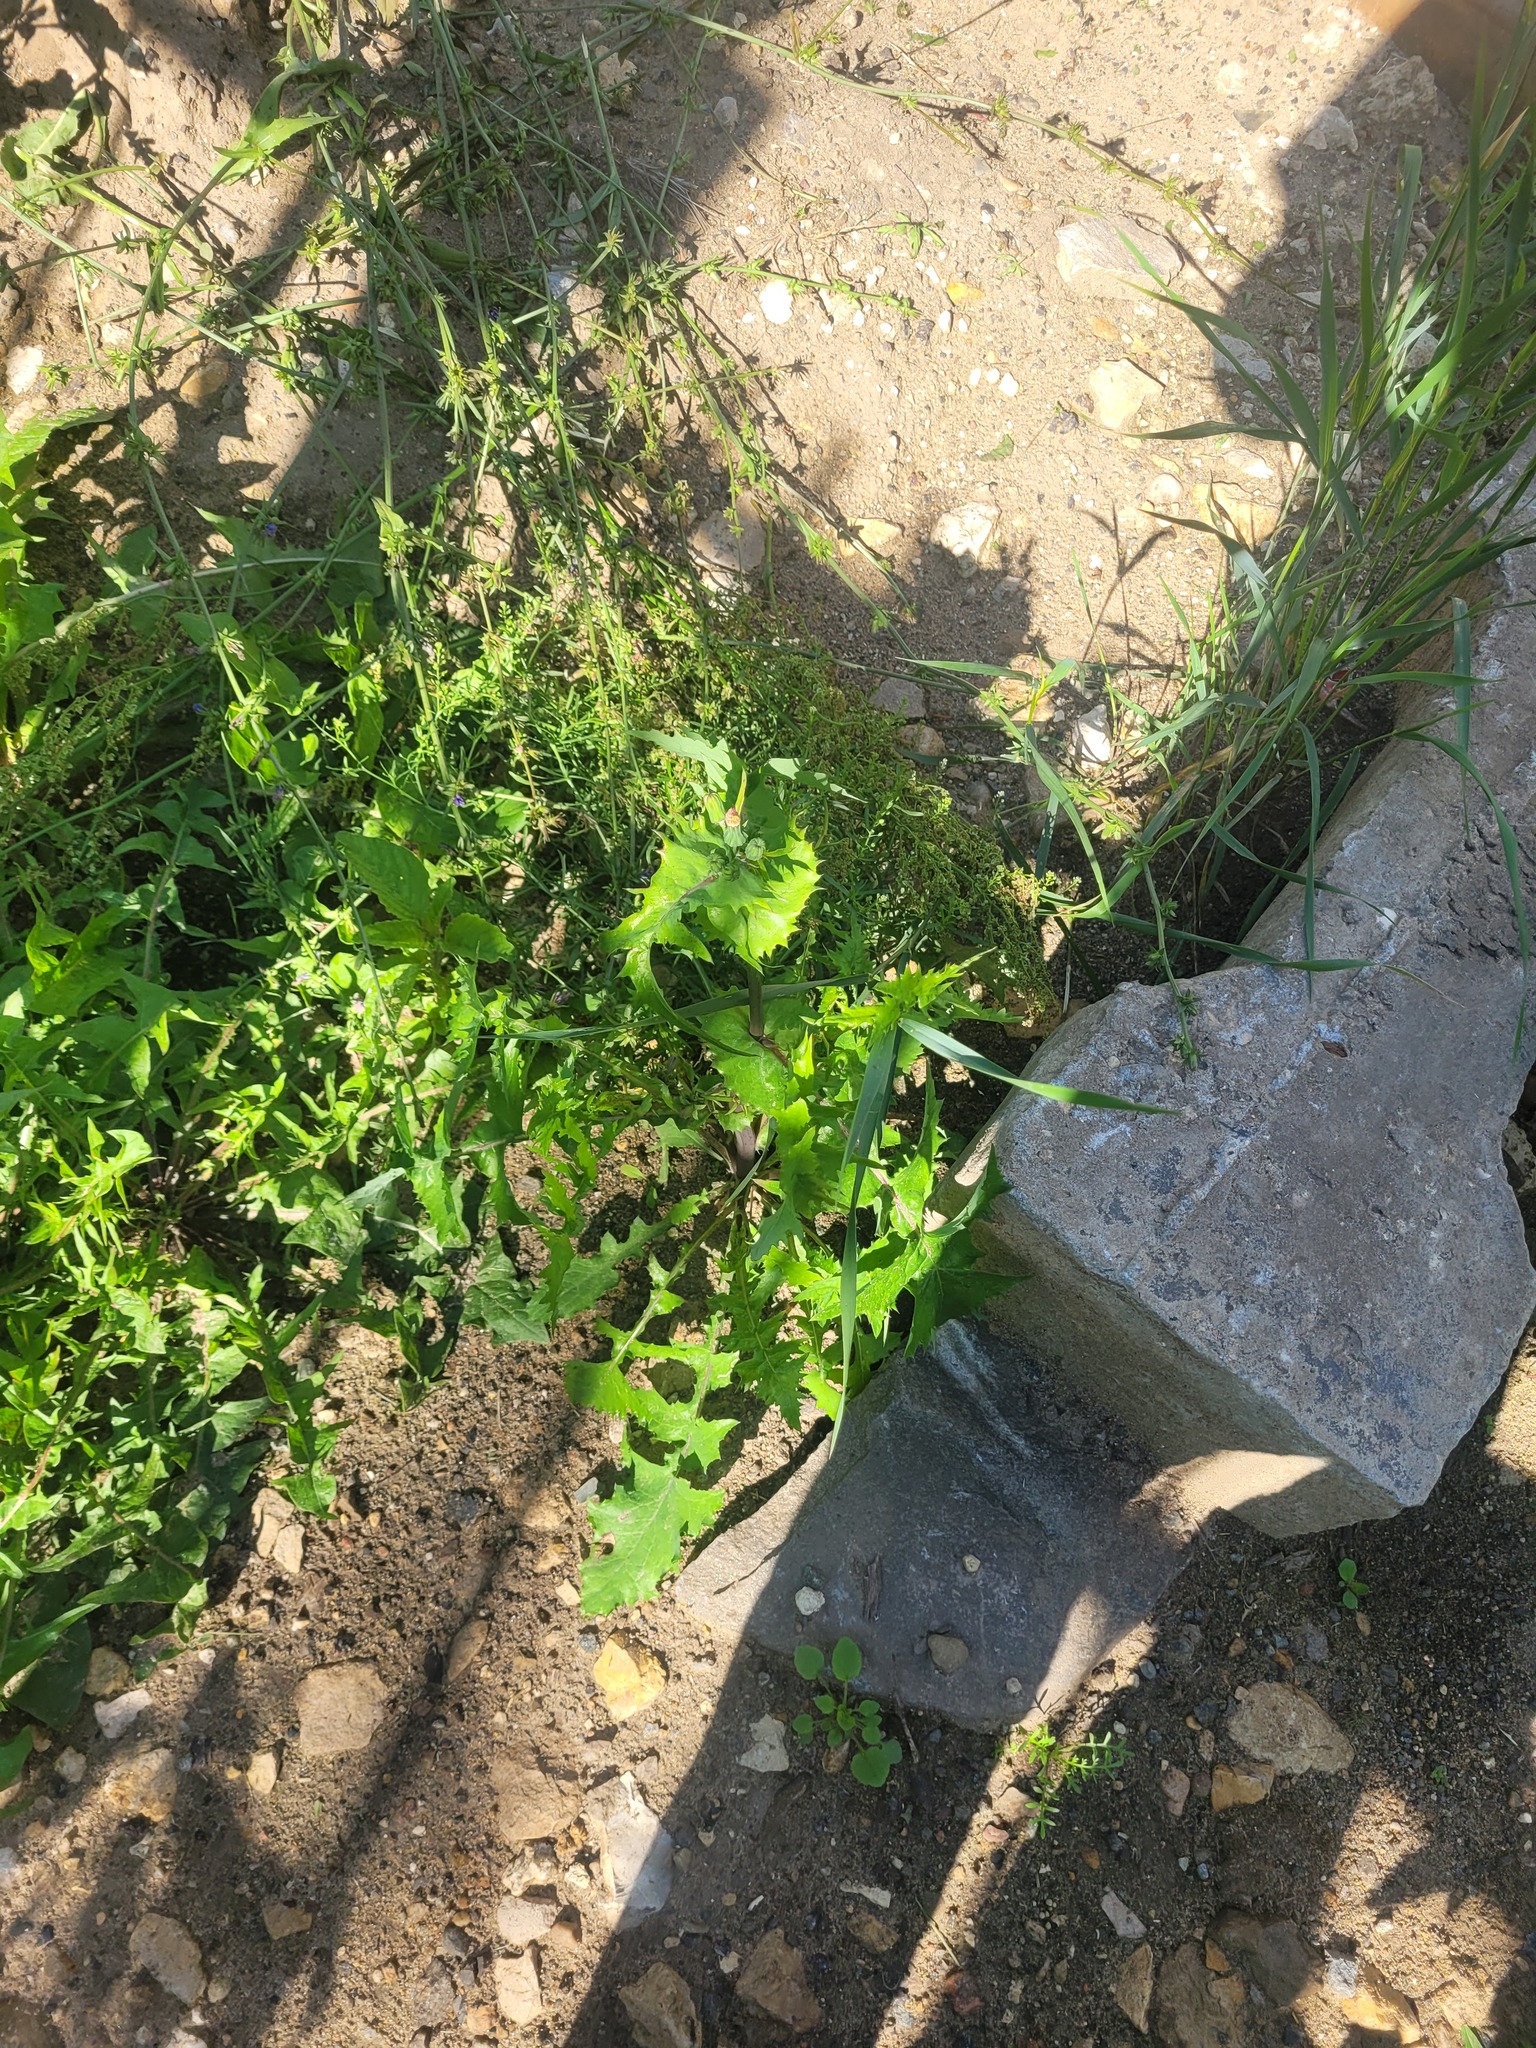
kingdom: Plantae
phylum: Tracheophyta
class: Magnoliopsida
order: Asterales
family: Asteraceae
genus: Sonchus
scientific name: Sonchus oleraceus
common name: Common sowthistle
